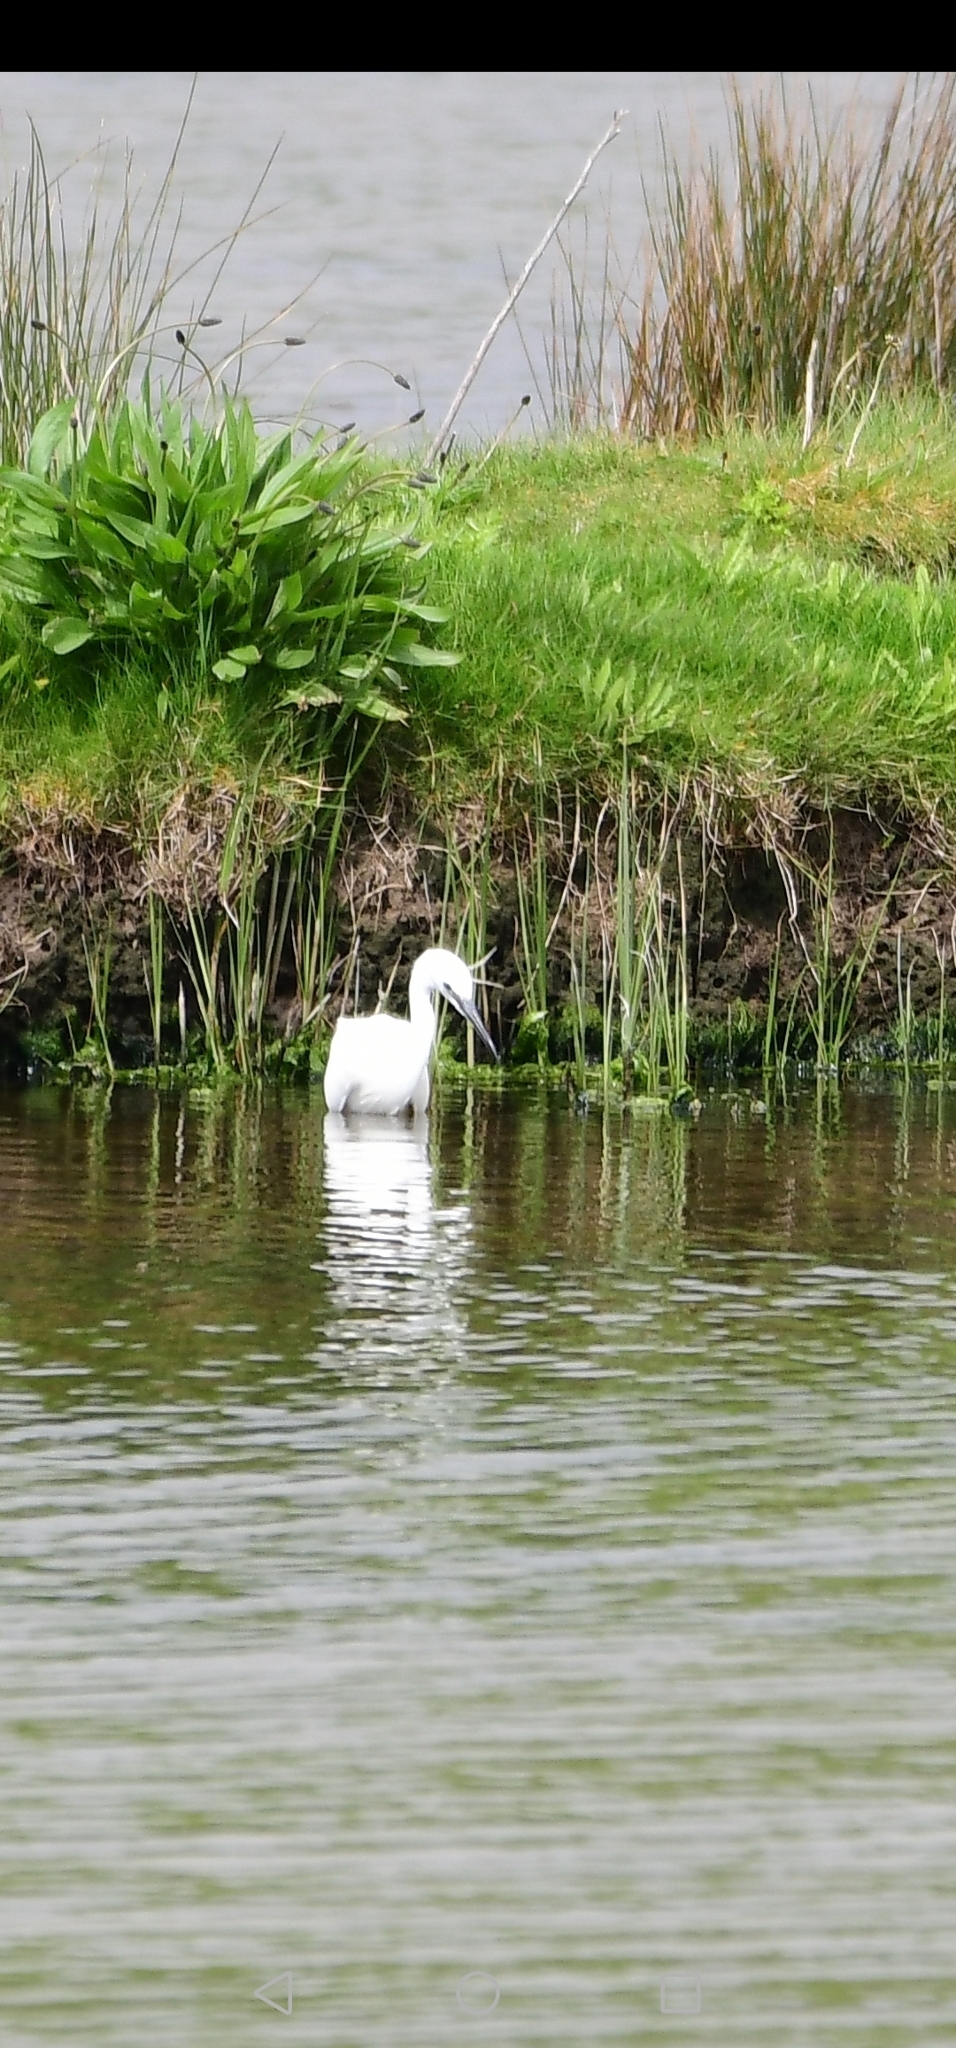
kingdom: Animalia
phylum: Chordata
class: Aves
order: Pelecaniformes
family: Ardeidae
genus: Egretta
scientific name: Egretta garzetta
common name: Little egret
